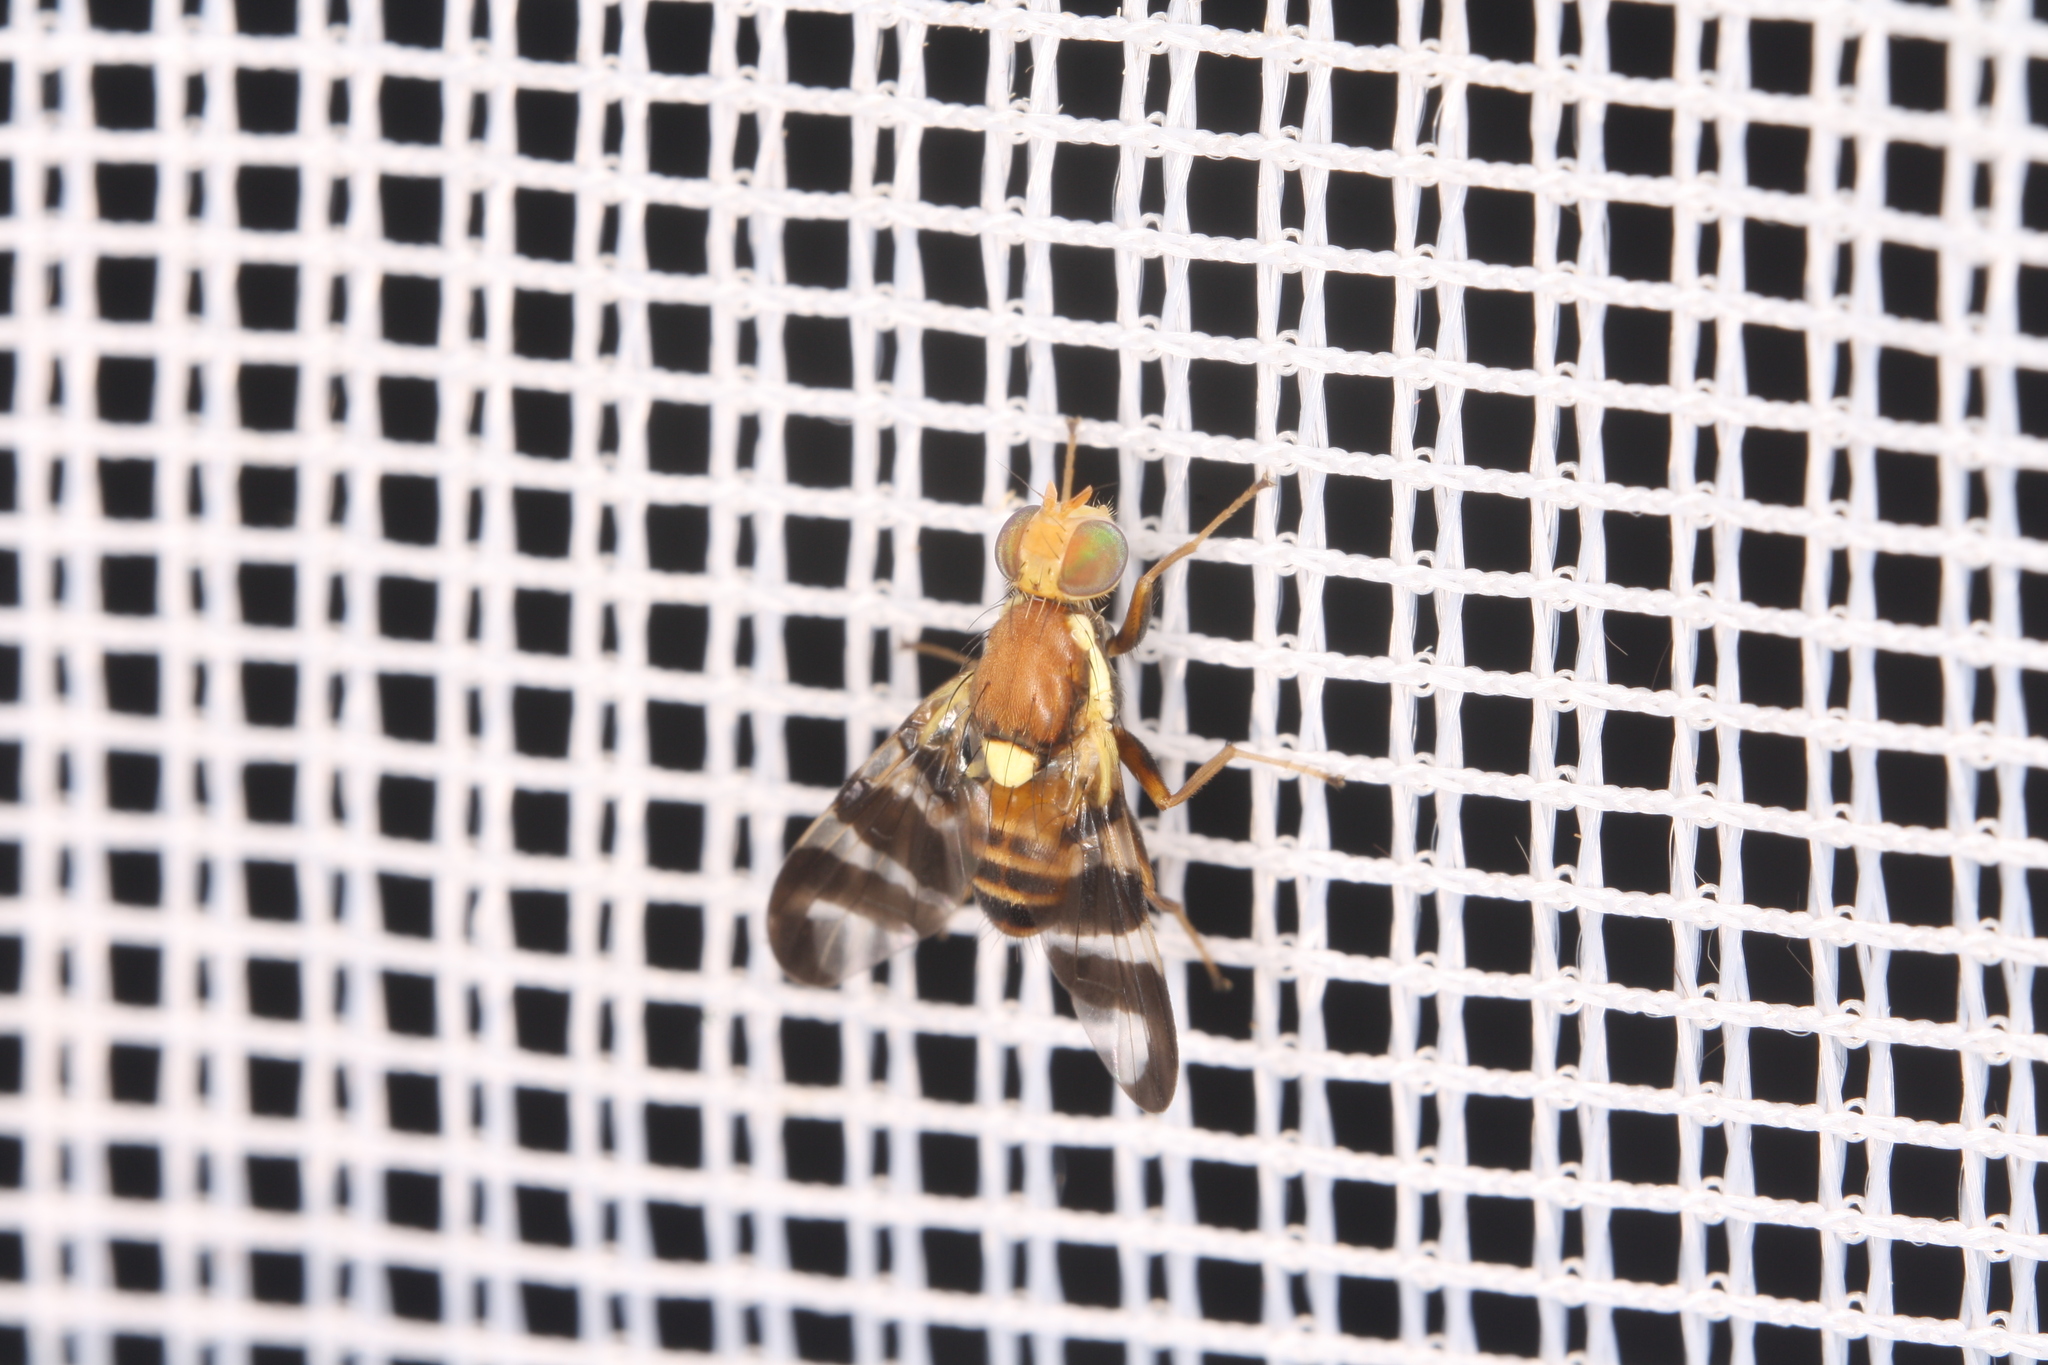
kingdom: Animalia
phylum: Arthropoda
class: Insecta
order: Diptera
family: Tephritidae
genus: Rhagoletis
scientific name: Rhagoletis completa
